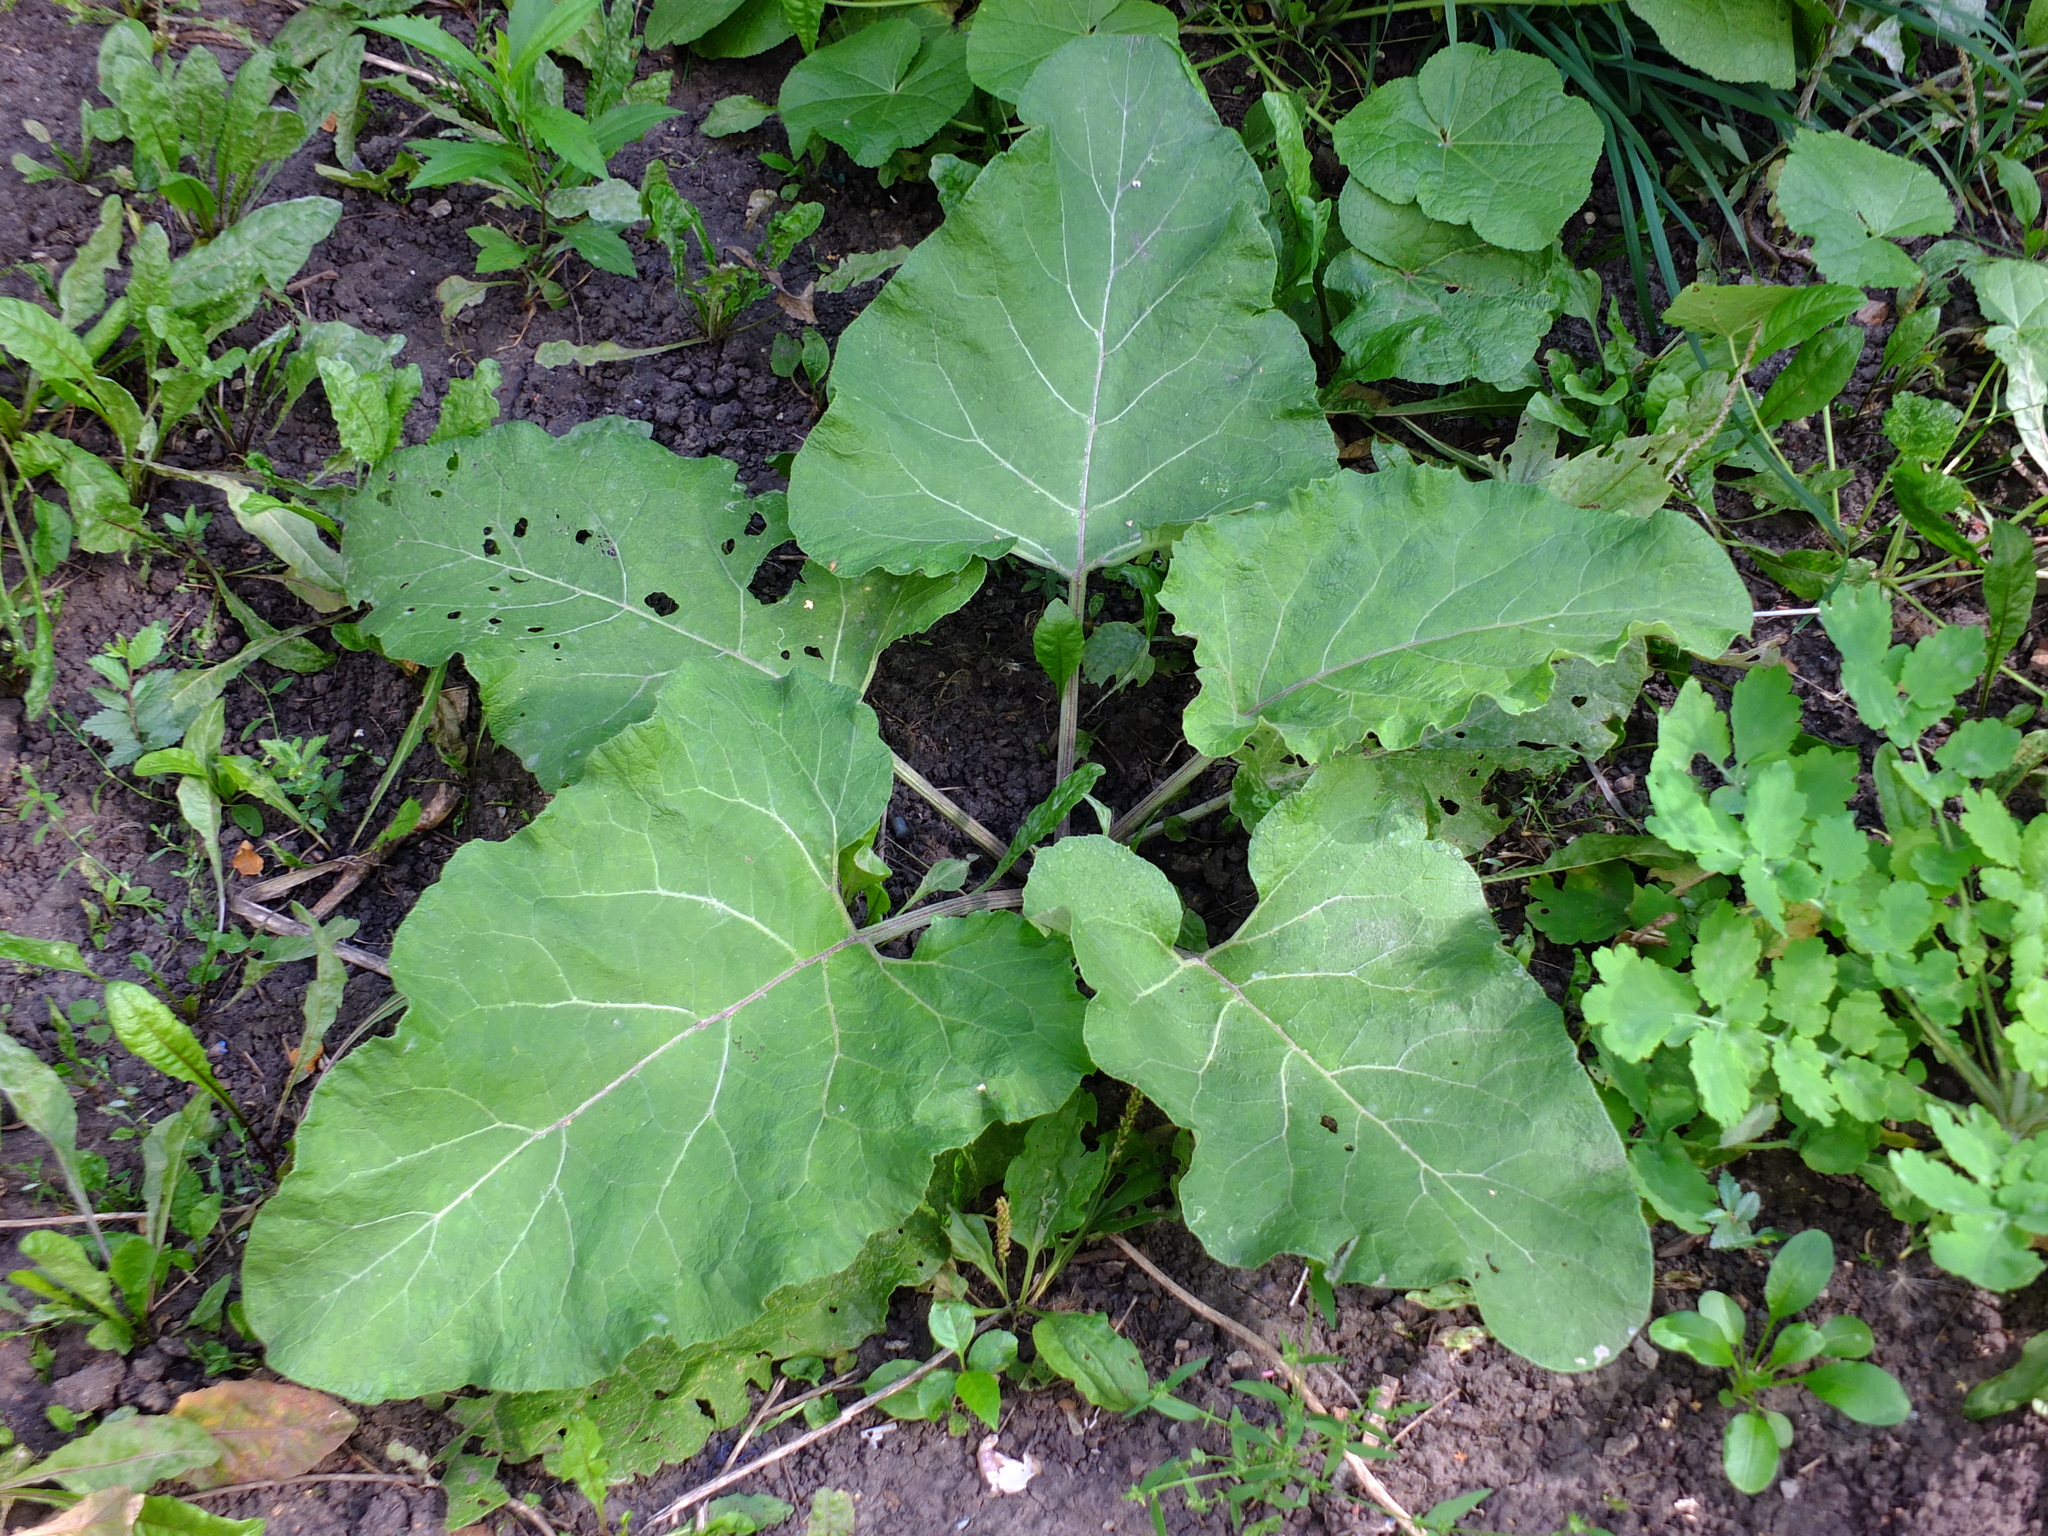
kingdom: Plantae
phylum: Tracheophyta
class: Magnoliopsida
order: Asterales
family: Asteraceae
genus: Arctium
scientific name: Arctium
